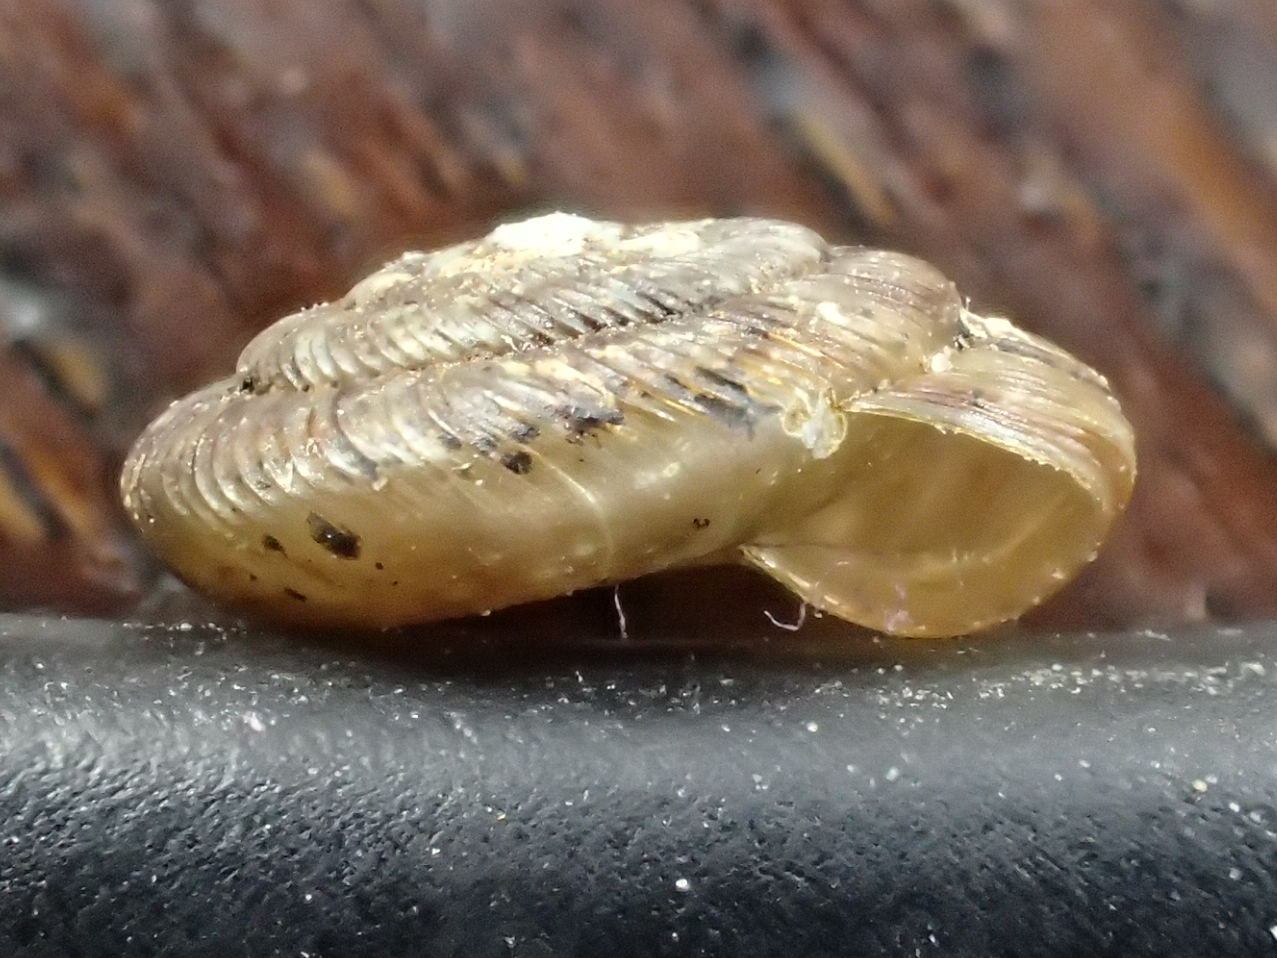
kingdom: Animalia
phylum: Mollusca
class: Gastropoda
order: Stylommatophora
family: Discidae
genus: Discus
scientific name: Discus rotundatus
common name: Rounded snail
